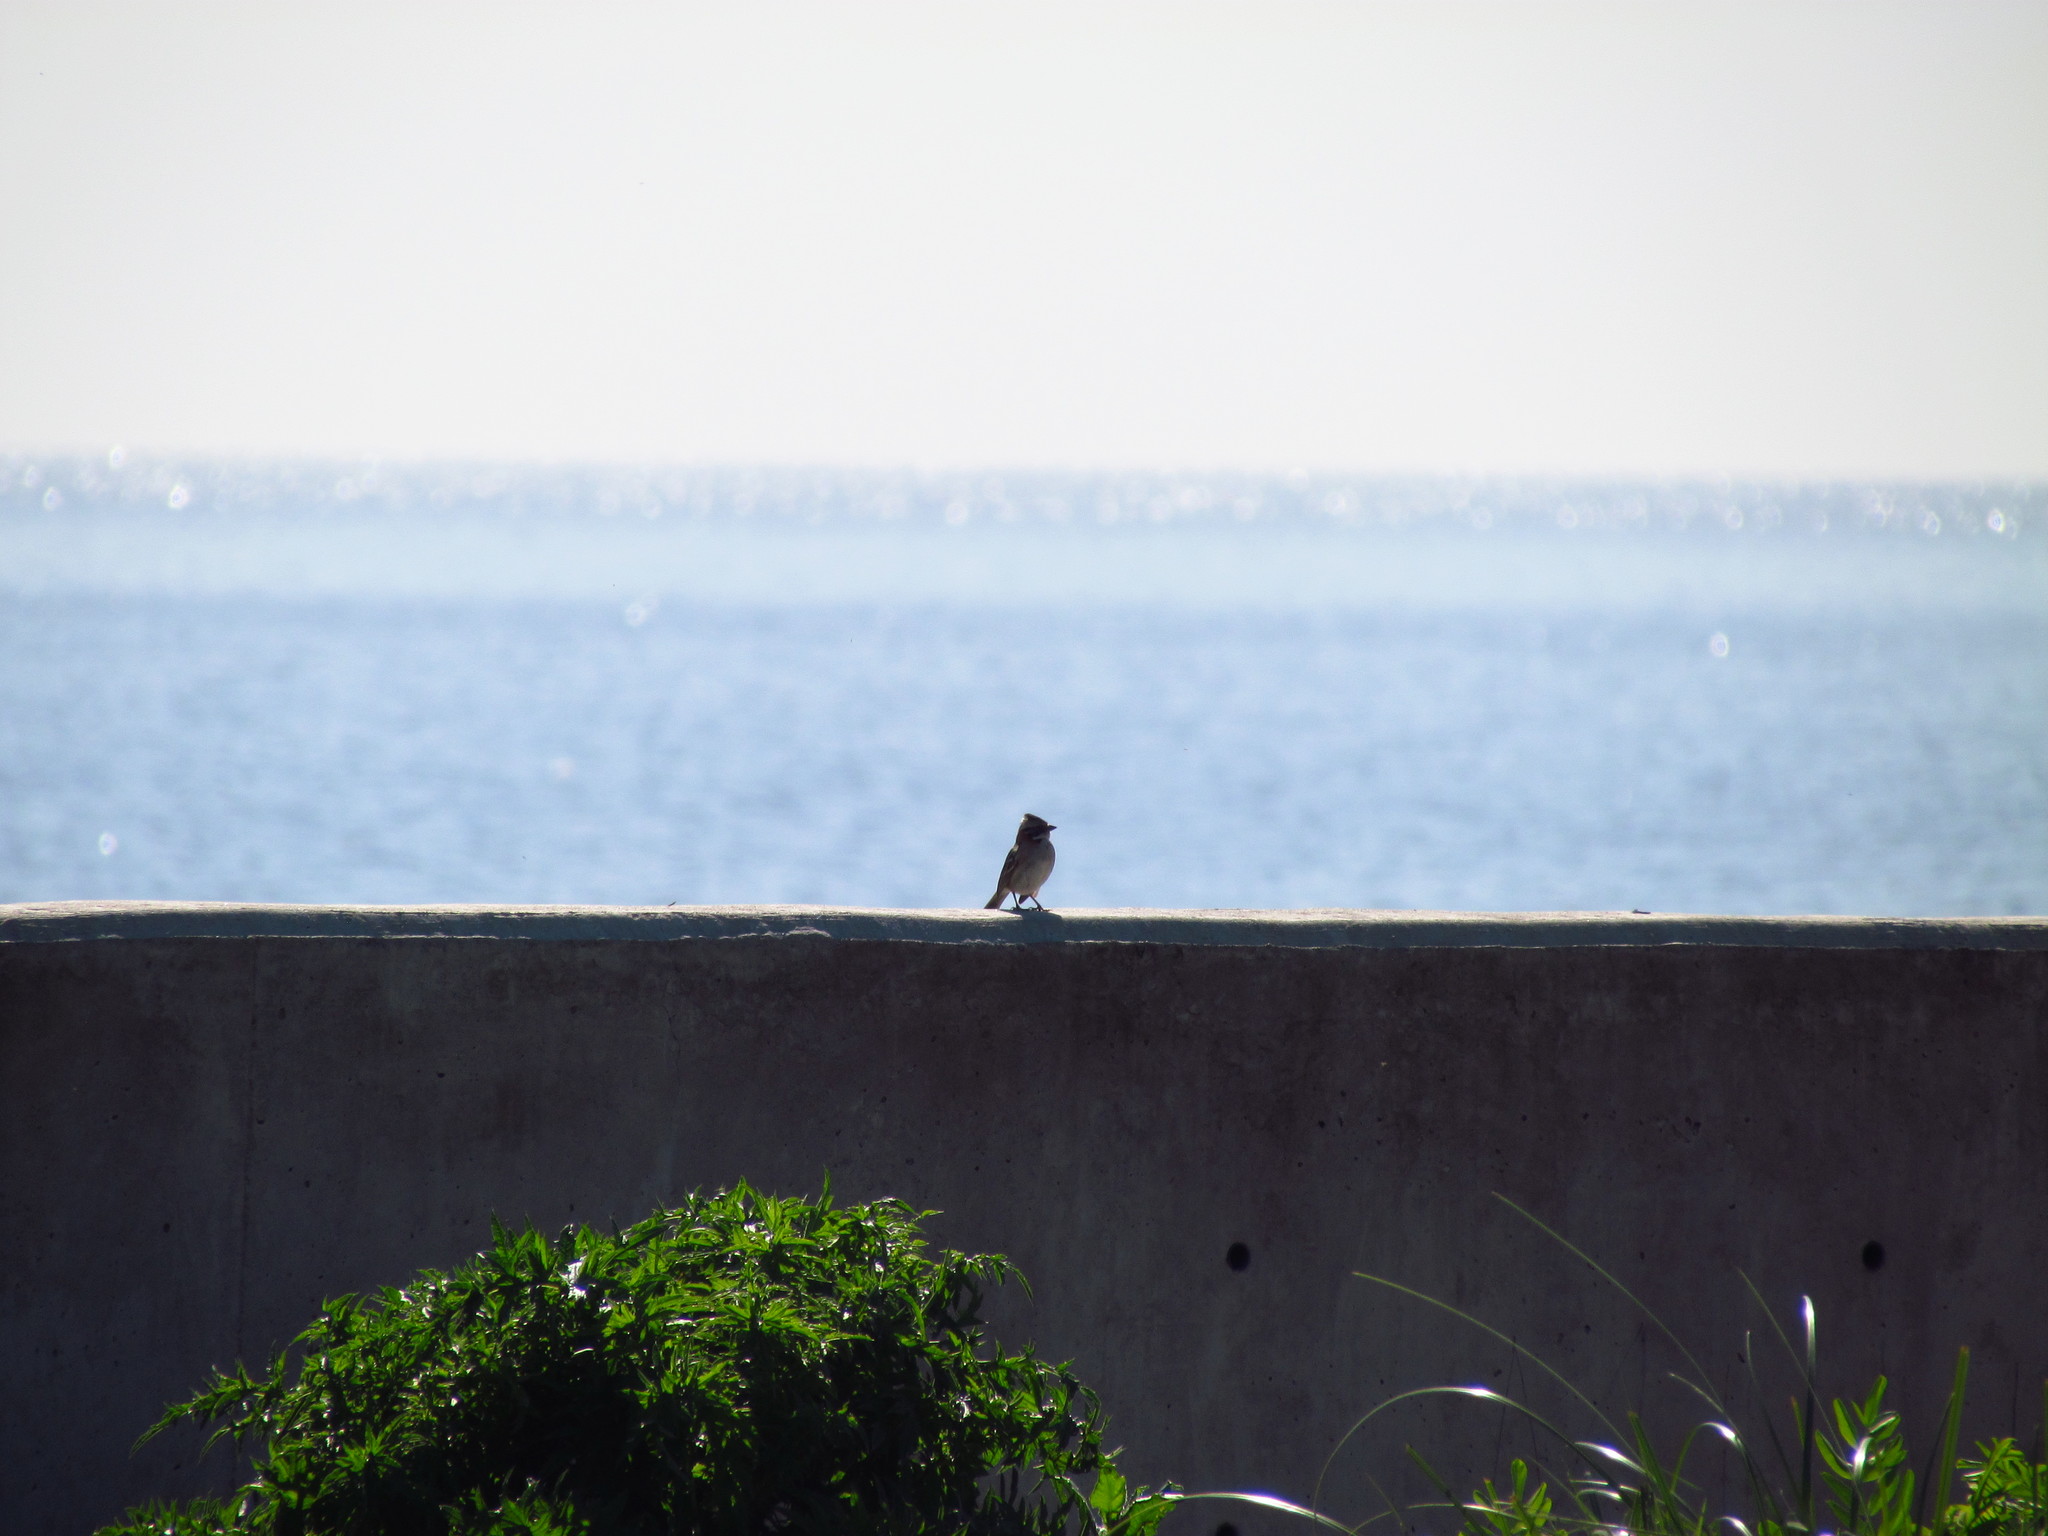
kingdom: Animalia
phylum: Chordata
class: Aves
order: Passeriformes
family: Passerellidae
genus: Zonotrichia
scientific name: Zonotrichia capensis
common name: Rufous-collared sparrow
